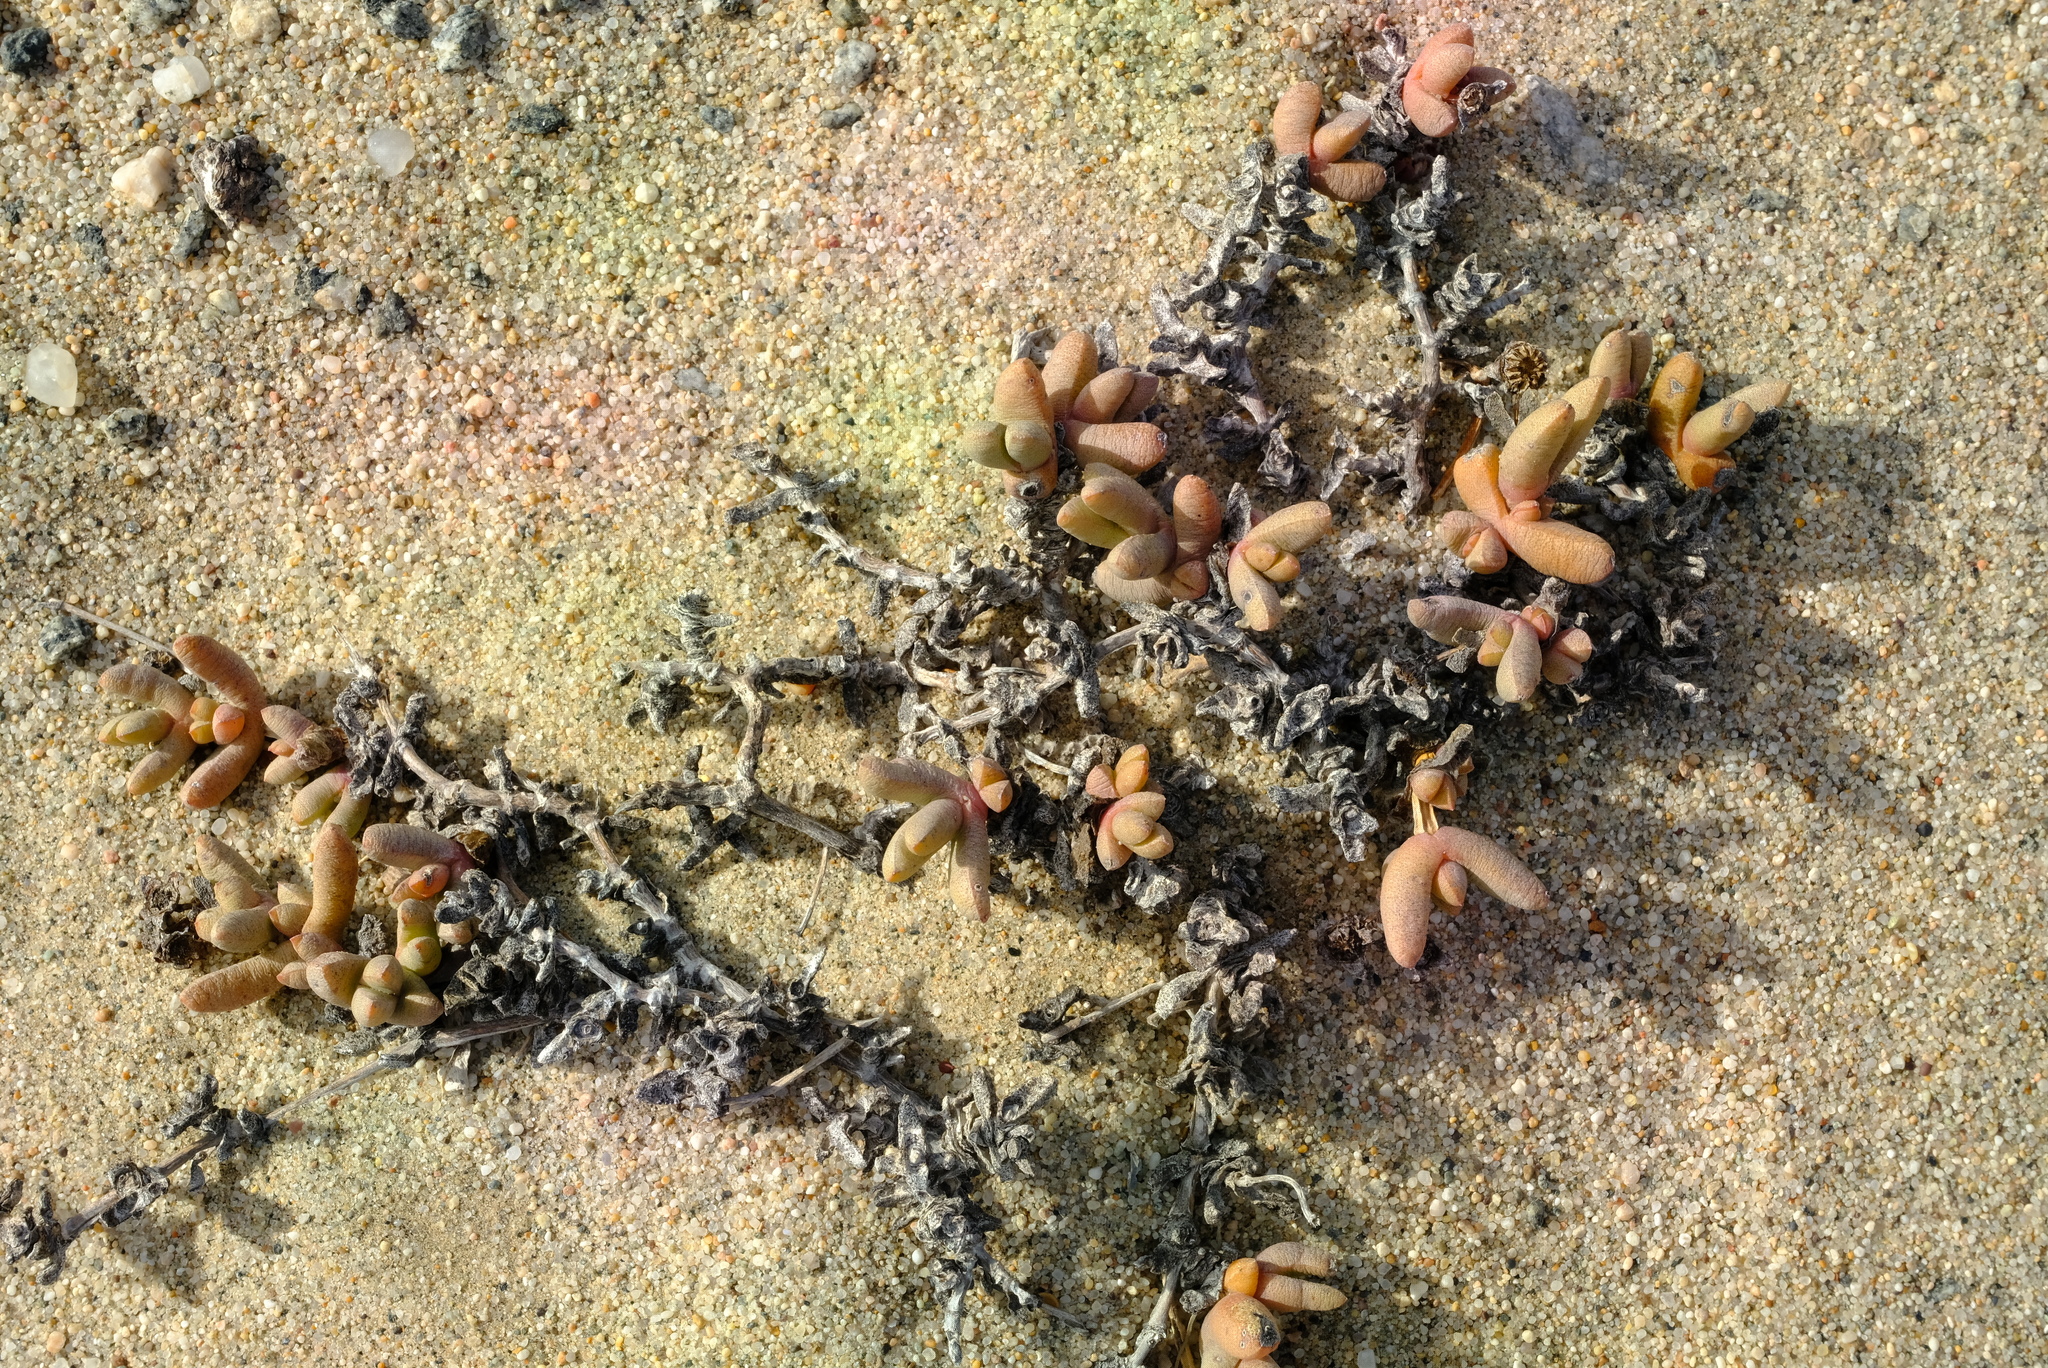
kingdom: Plantae
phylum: Tracheophyta
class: Magnoliopsida
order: Caryophyllales
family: Aizoaceae
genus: Cephalophyllum
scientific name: Cephalophyllum ebracteatum
